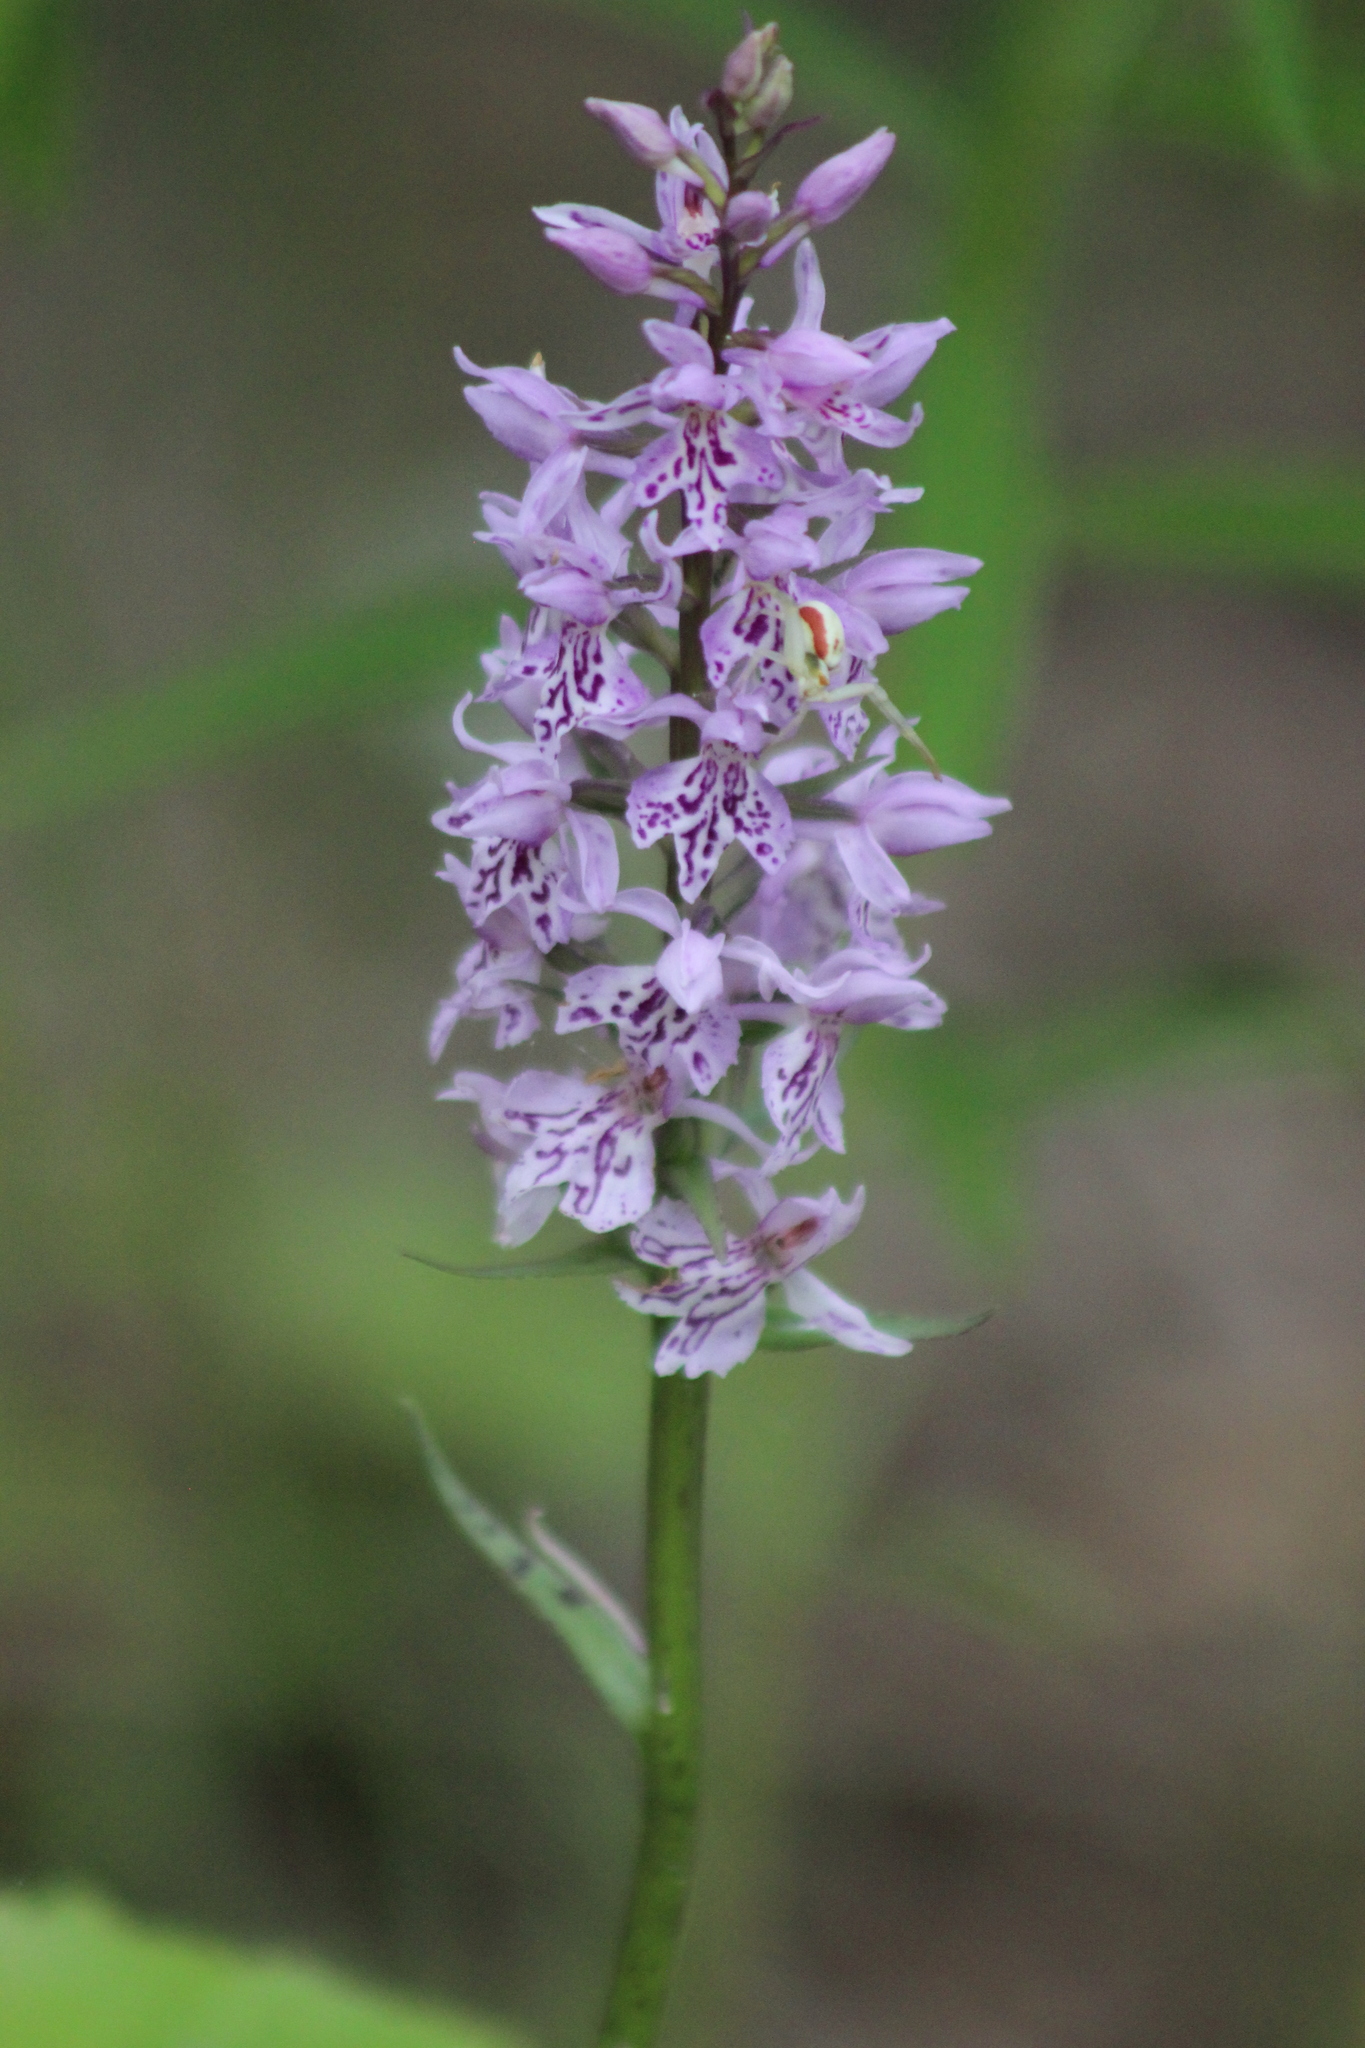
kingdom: Plantae
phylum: Tracheophyta
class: Liliopsida
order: Asparagales
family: Orchidaceae
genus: Dactylorhiza
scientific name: Dactylorhiza maculata
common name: Heath spotted-orchid
